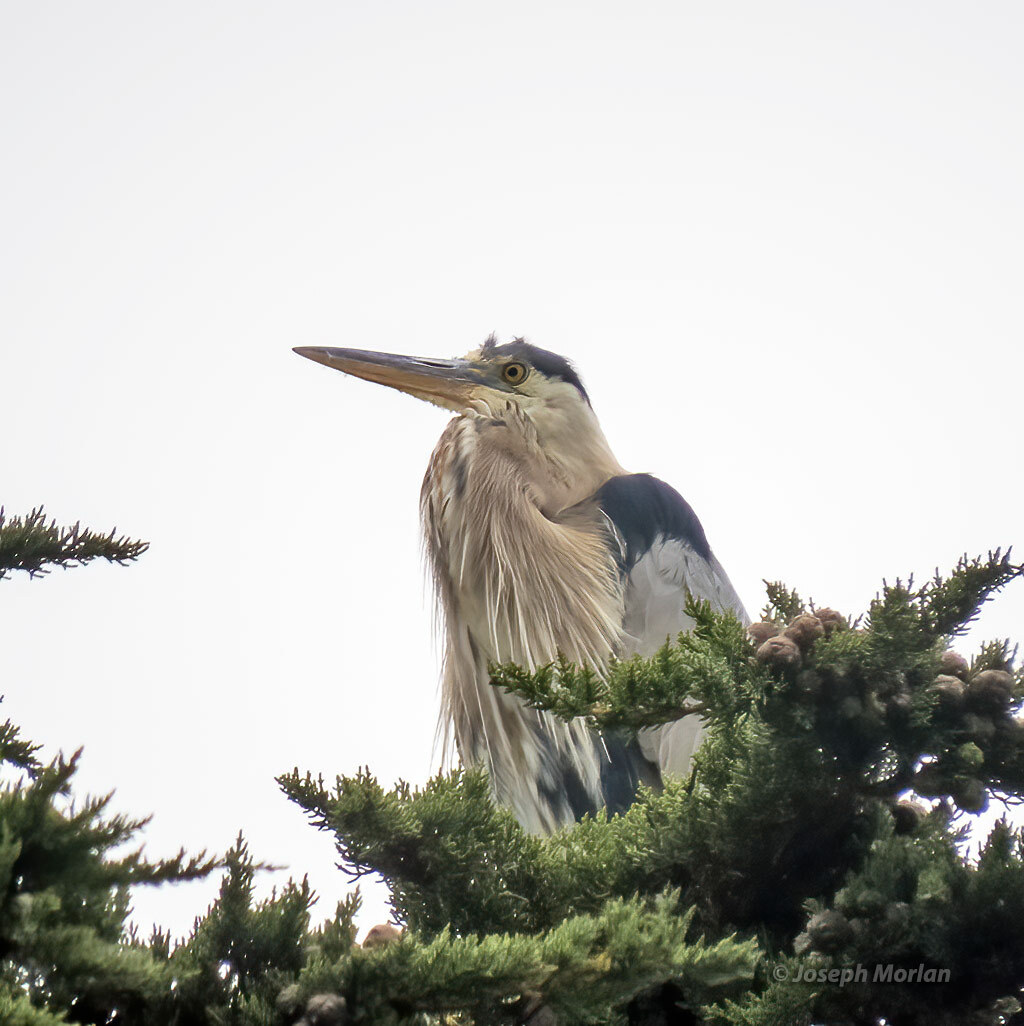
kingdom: Animalia
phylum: Chordata
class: Aves
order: Pelecaniformes
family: Ardeidae
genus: Ardea
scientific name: Ardea herodias
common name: Great blue heron
